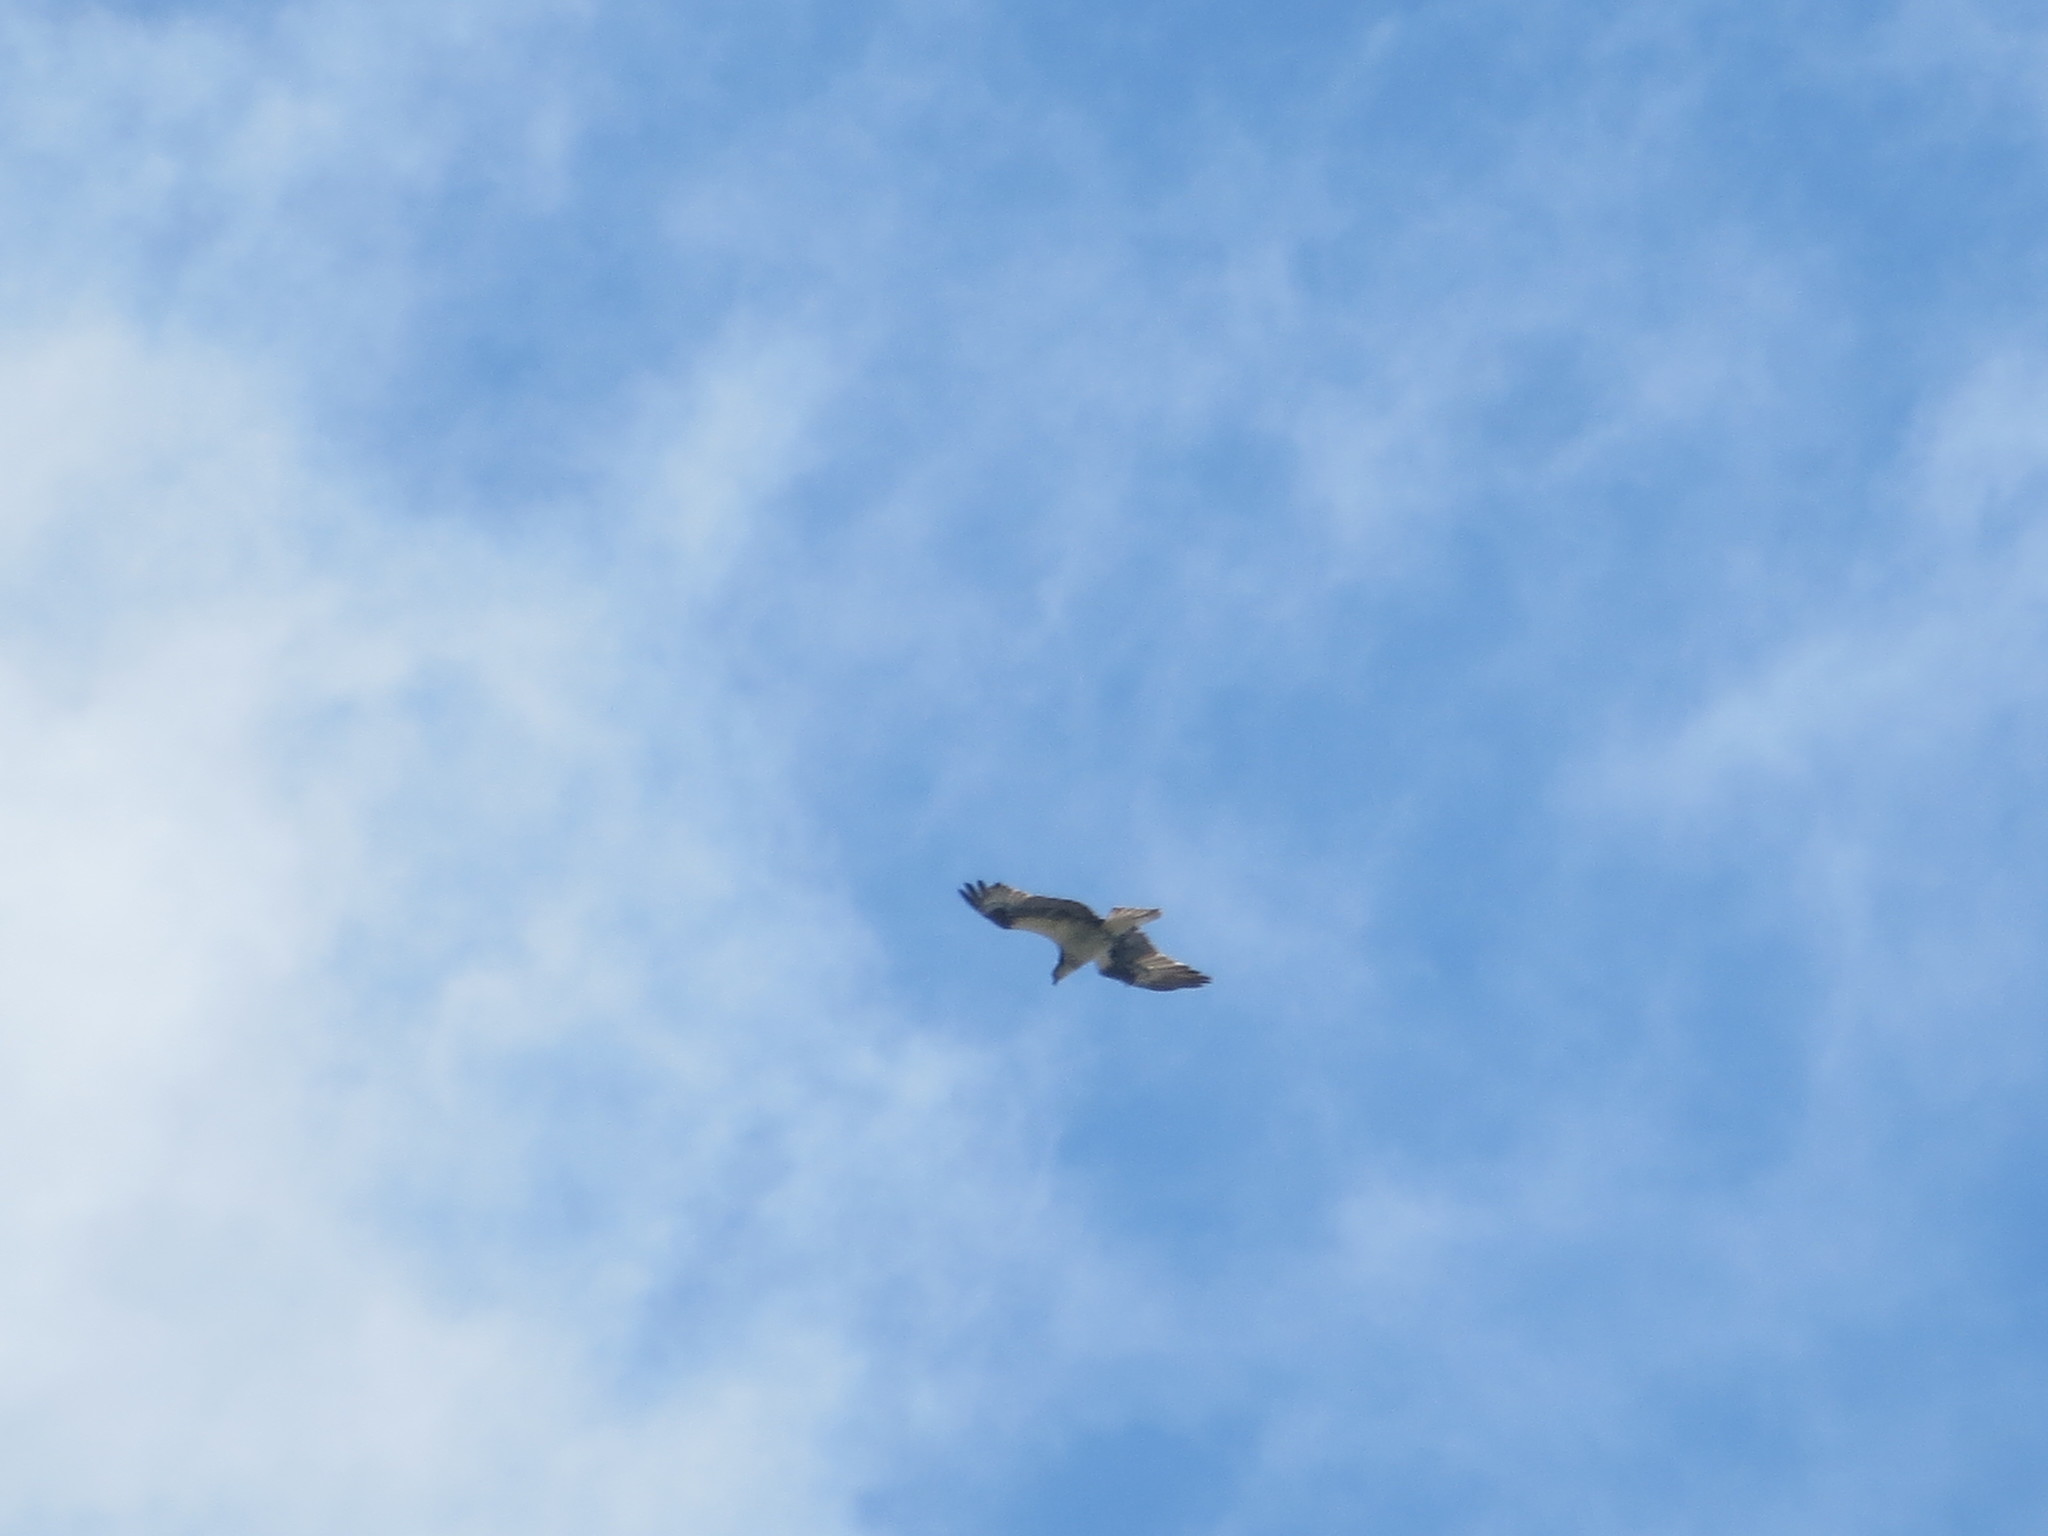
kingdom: Animalia
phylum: Chordata
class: Aves
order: Accipitriformes
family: Pandionidae
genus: Pandion
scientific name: Pandion haliaetus
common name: Osprey
